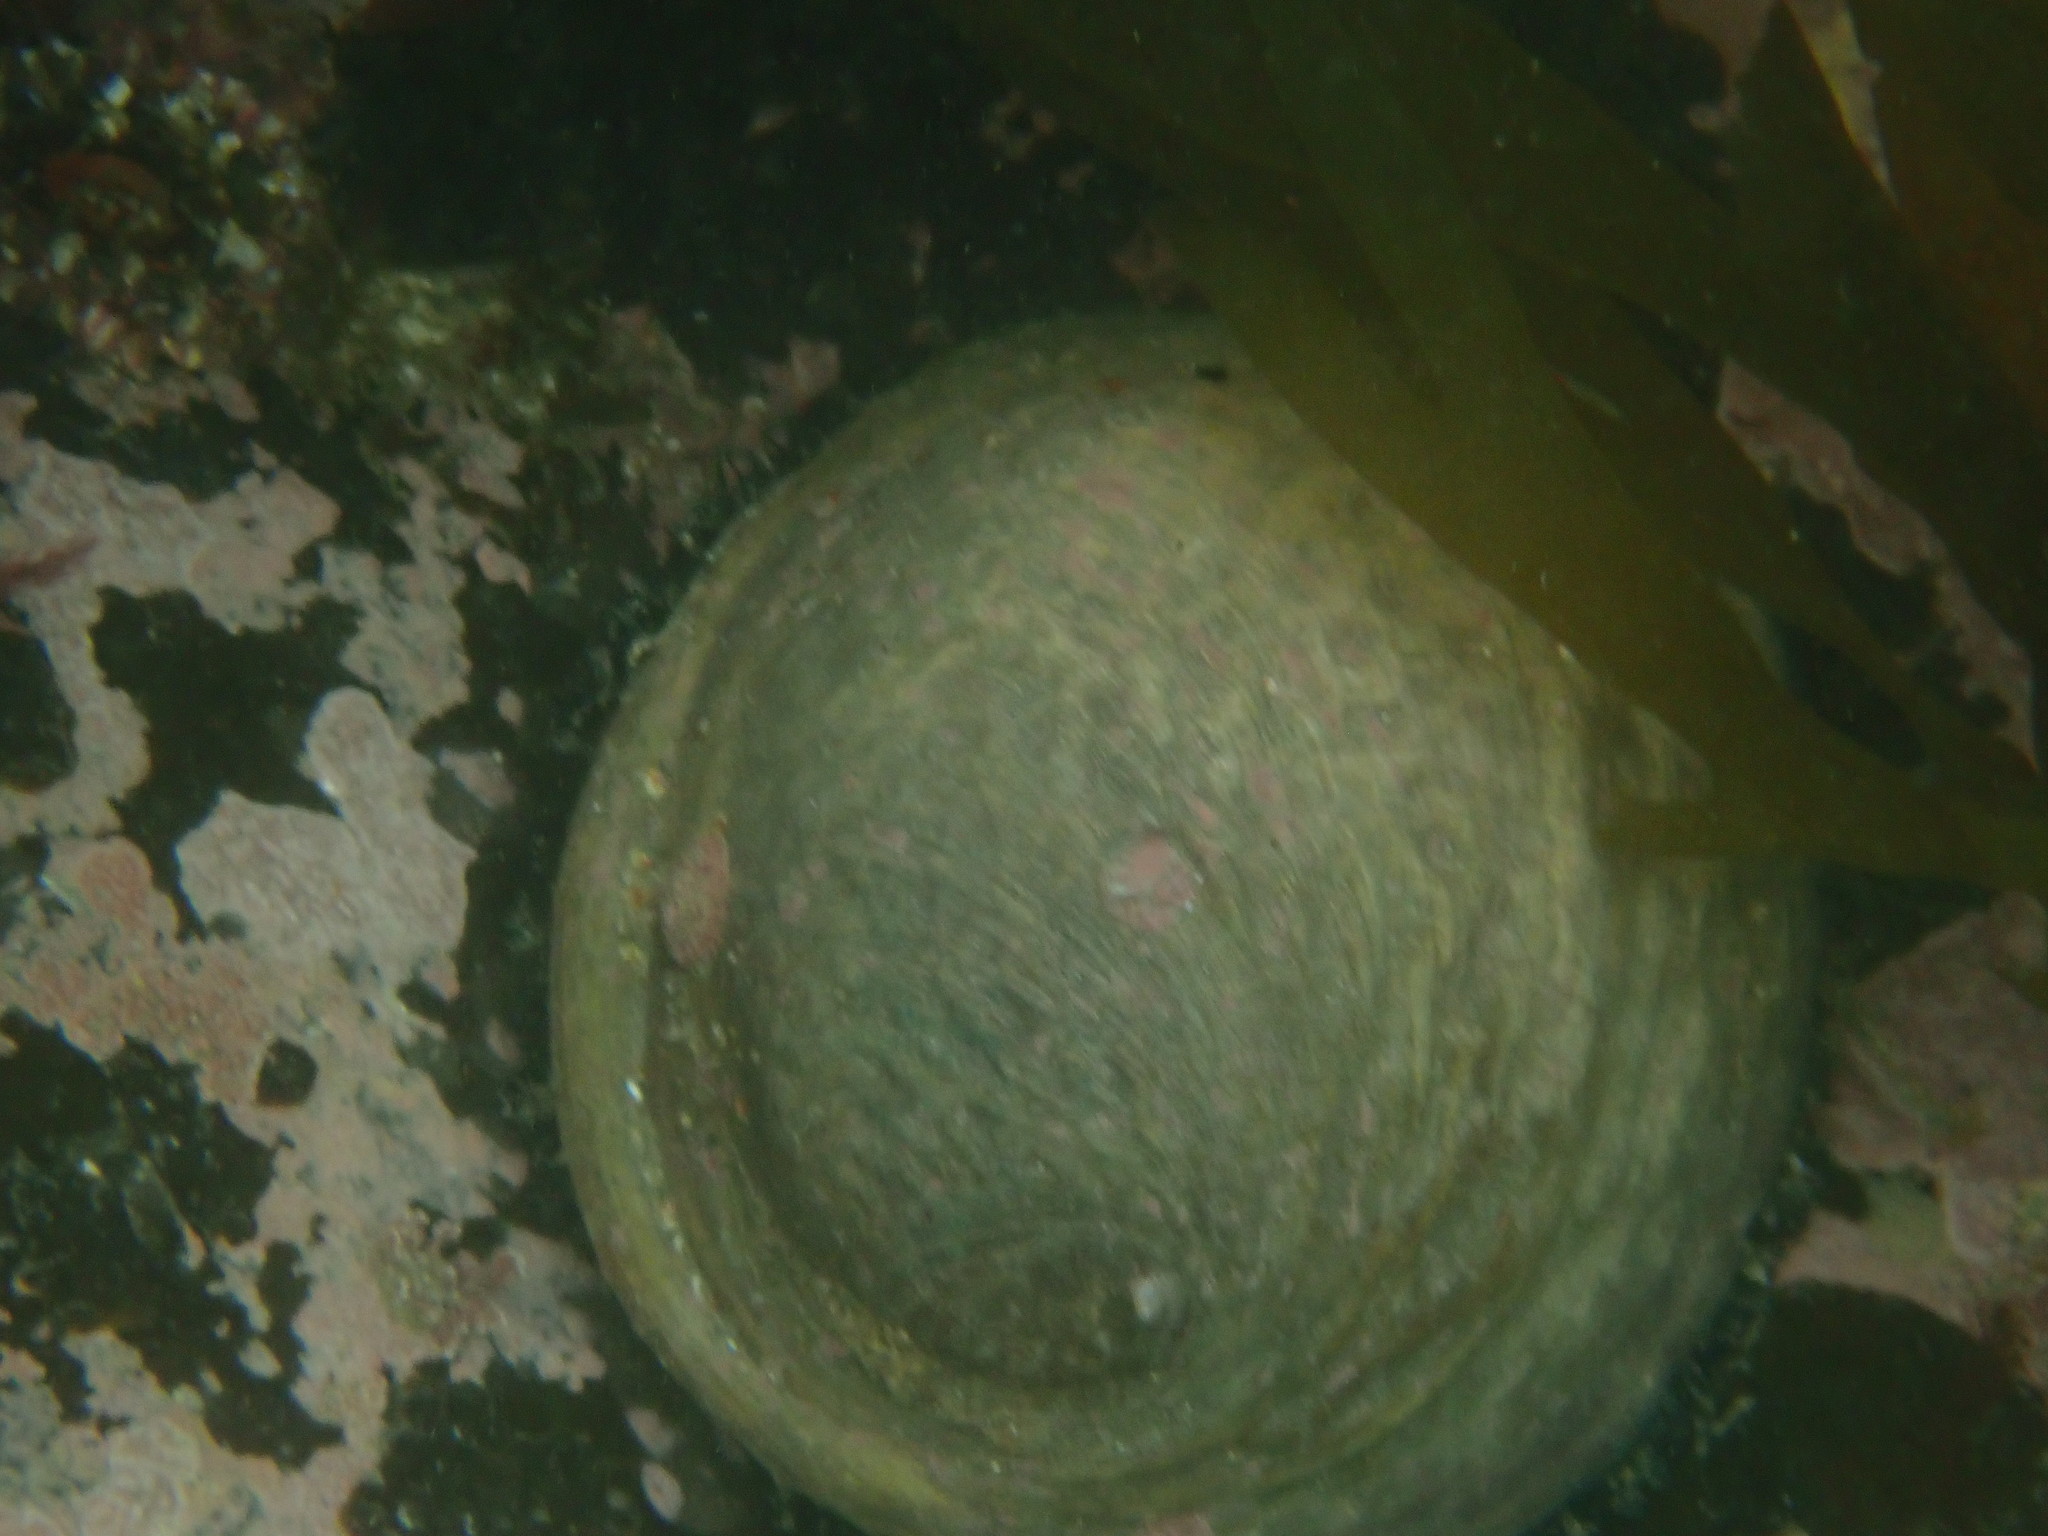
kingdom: Animalia
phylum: Mollusca
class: Gastropoda
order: Lepetellida
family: Haliotidae
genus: Haliotis
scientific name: Haliotis iris
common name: Abalone
